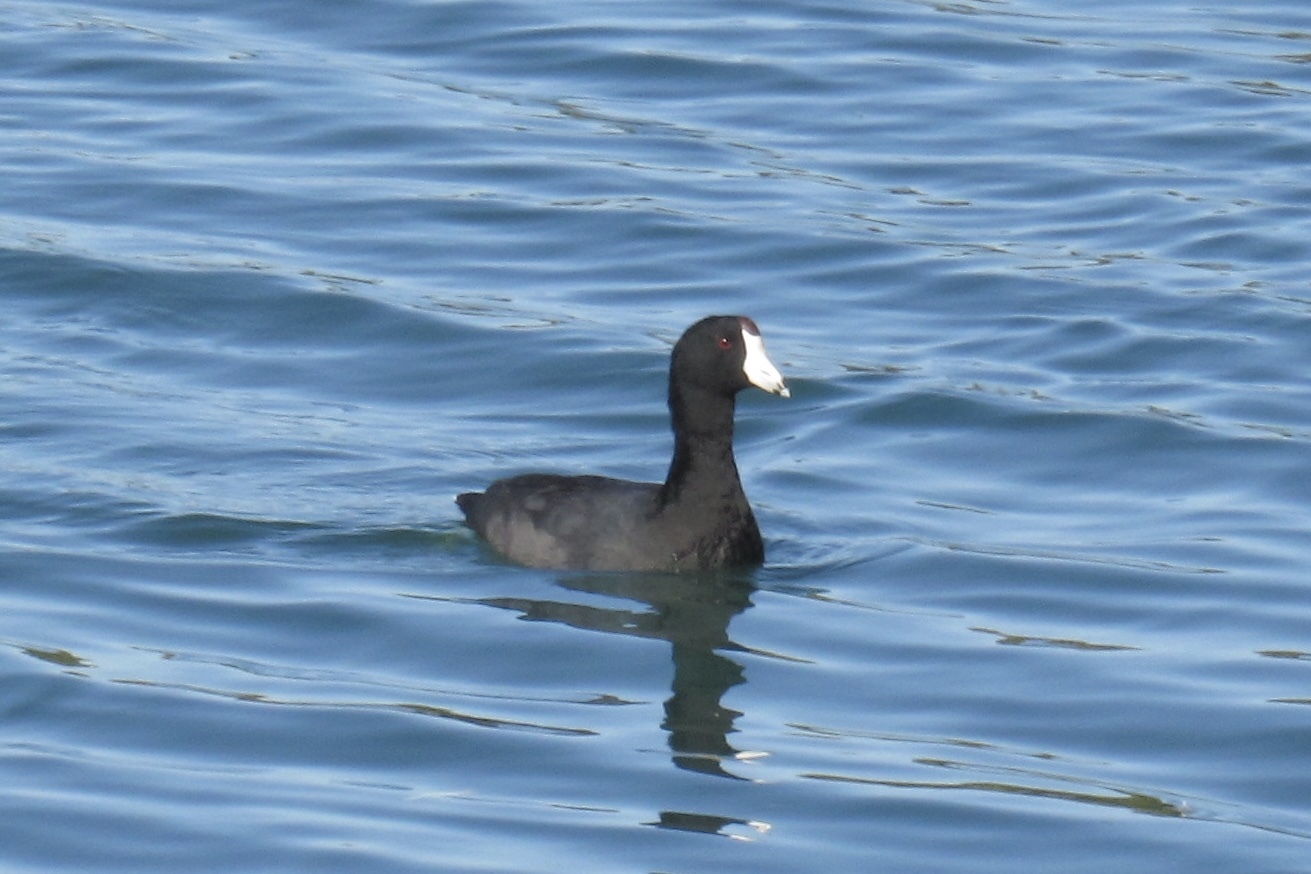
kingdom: Animalia
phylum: Chordata
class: Aves
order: Gruiformes
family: Rallidae
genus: Fulica
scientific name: Fulica americana
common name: American coot
